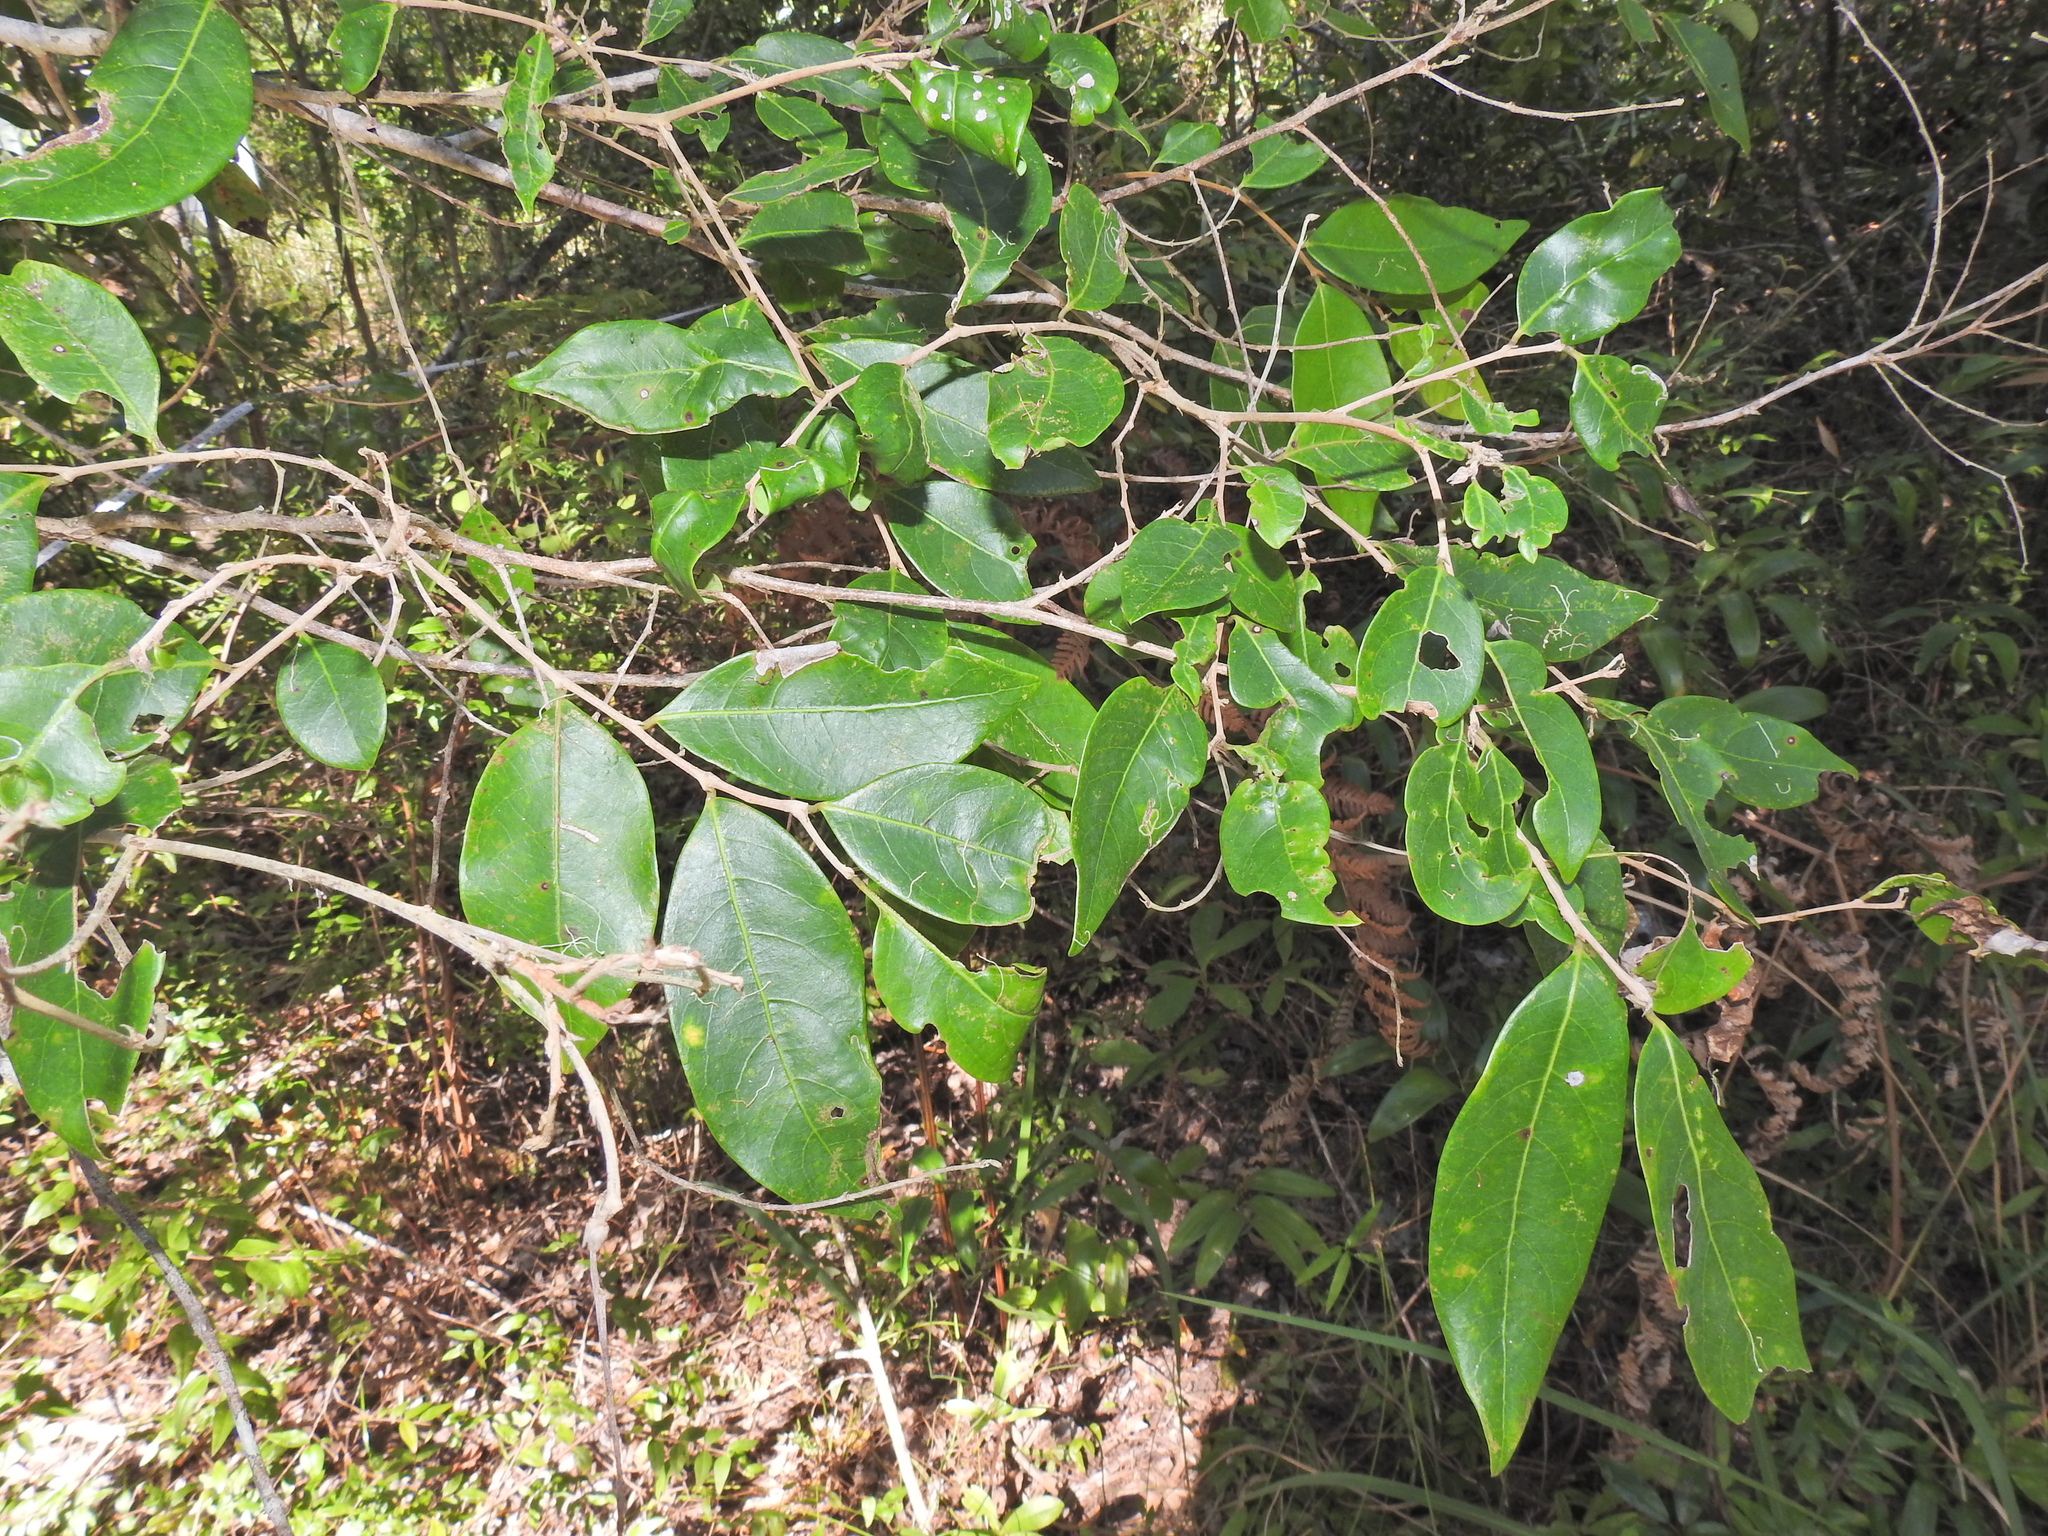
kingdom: Plantae
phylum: Tracheophyta
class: Magnoliopsida
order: Malpighiales
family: Phyllanthaceae
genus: Glochidion
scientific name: Glochidion lobocarpum
